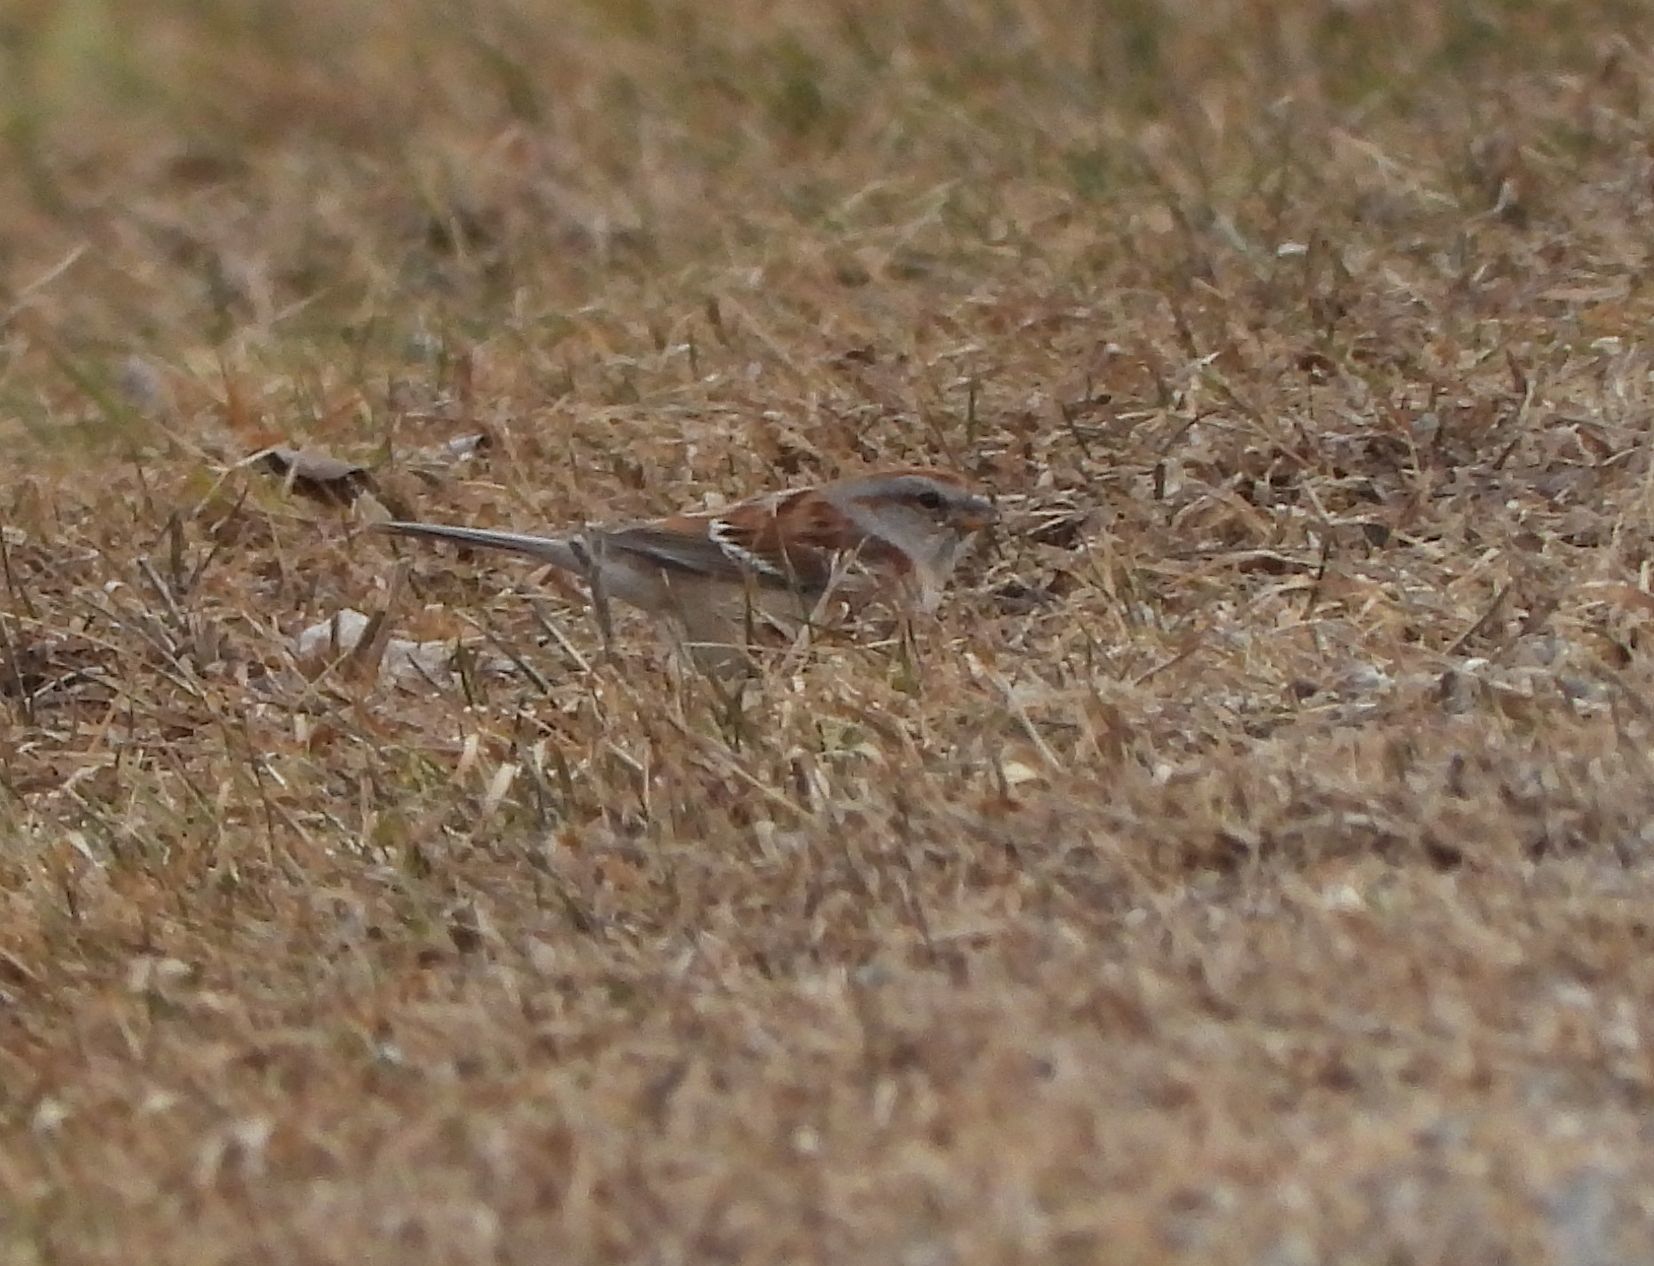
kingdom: Animalia
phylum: Chordata
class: Aves
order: Passeriformes
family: Passerellidae
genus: Spizelloides
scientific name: Spizelloides arborea
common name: American tree sparrow
